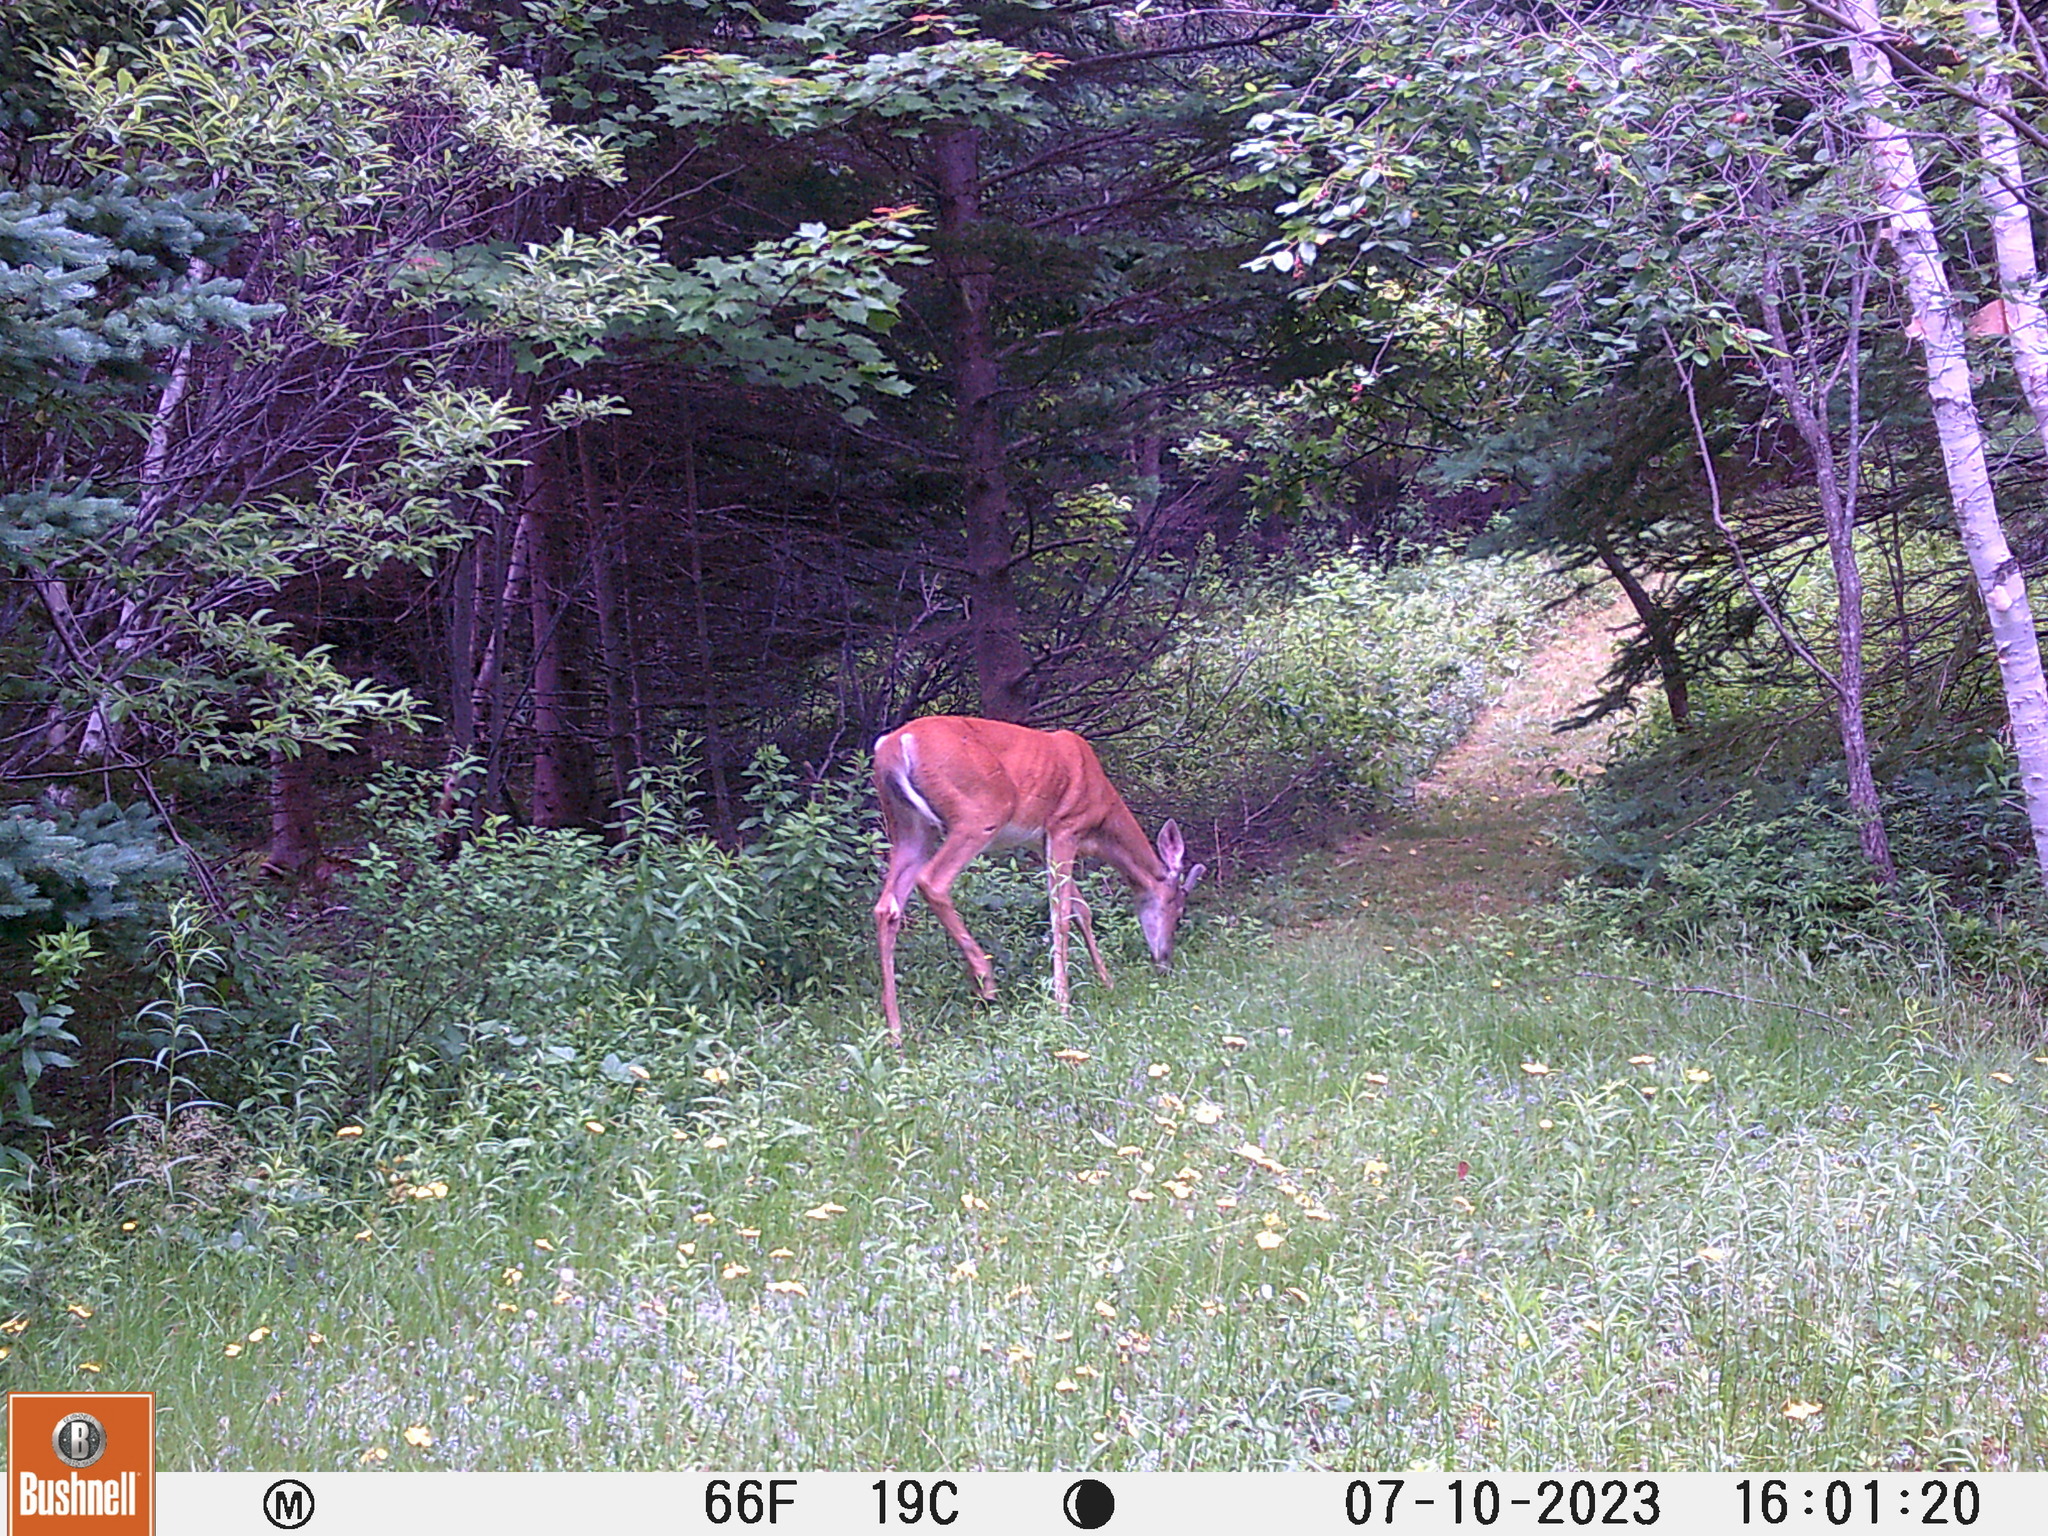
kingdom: Animalia
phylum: Chordata
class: Mammalia
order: Artiodactyla
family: Cervidae
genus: Odocoileus
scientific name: Odocoileus virginianus
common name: White-tailed deer
